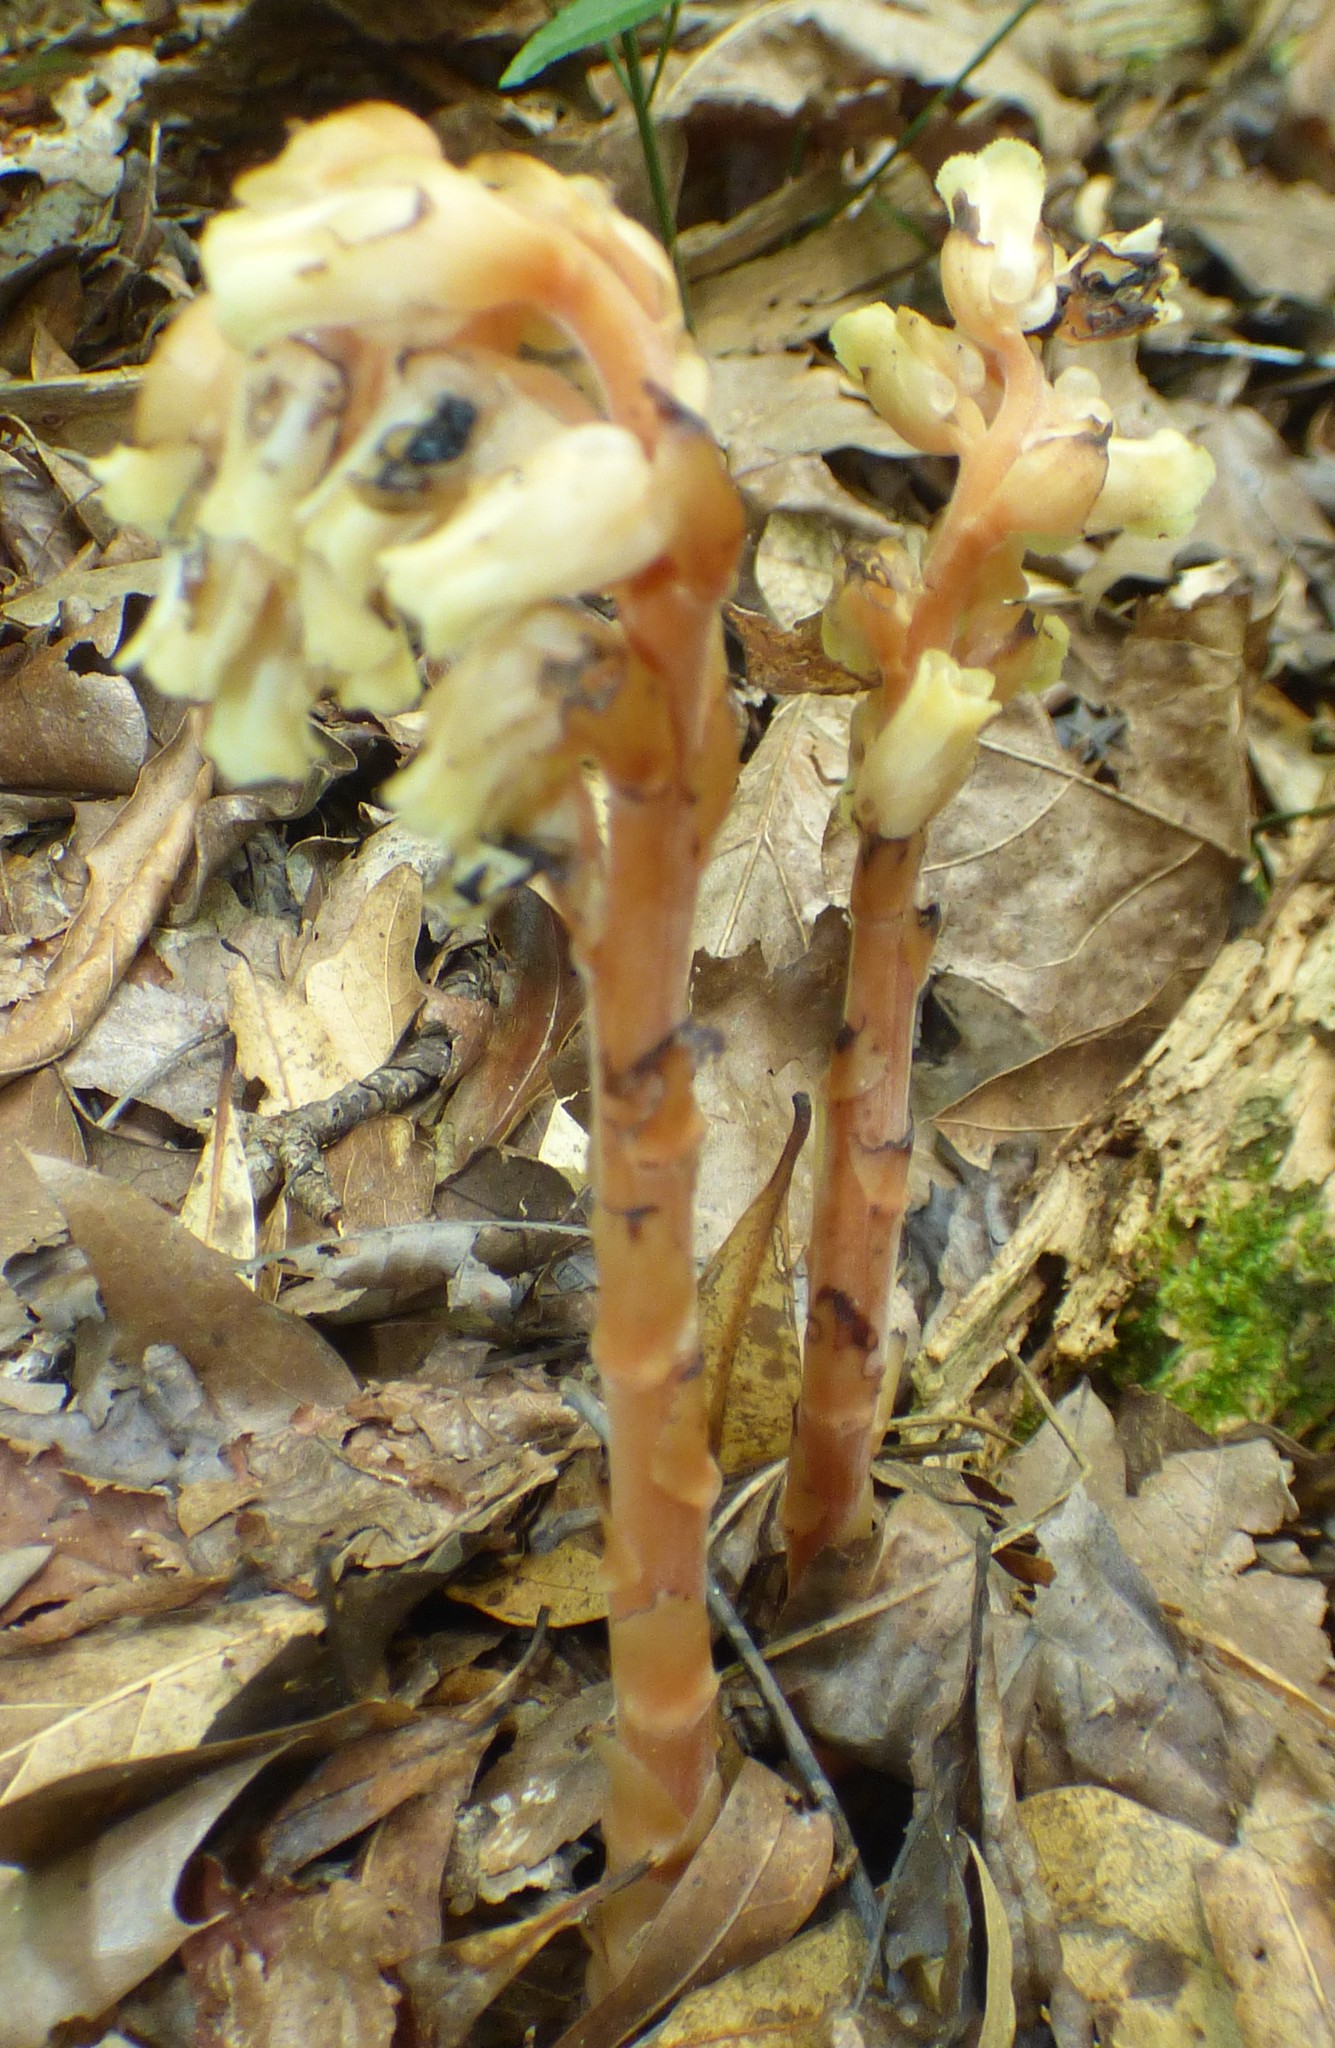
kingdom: Plantae
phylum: Tracheophyta
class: Magnoliopsida
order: Ericales
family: Ericaceae
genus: Hypopitys
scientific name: Hypopitys monotropa
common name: Yellow bird's-nest
